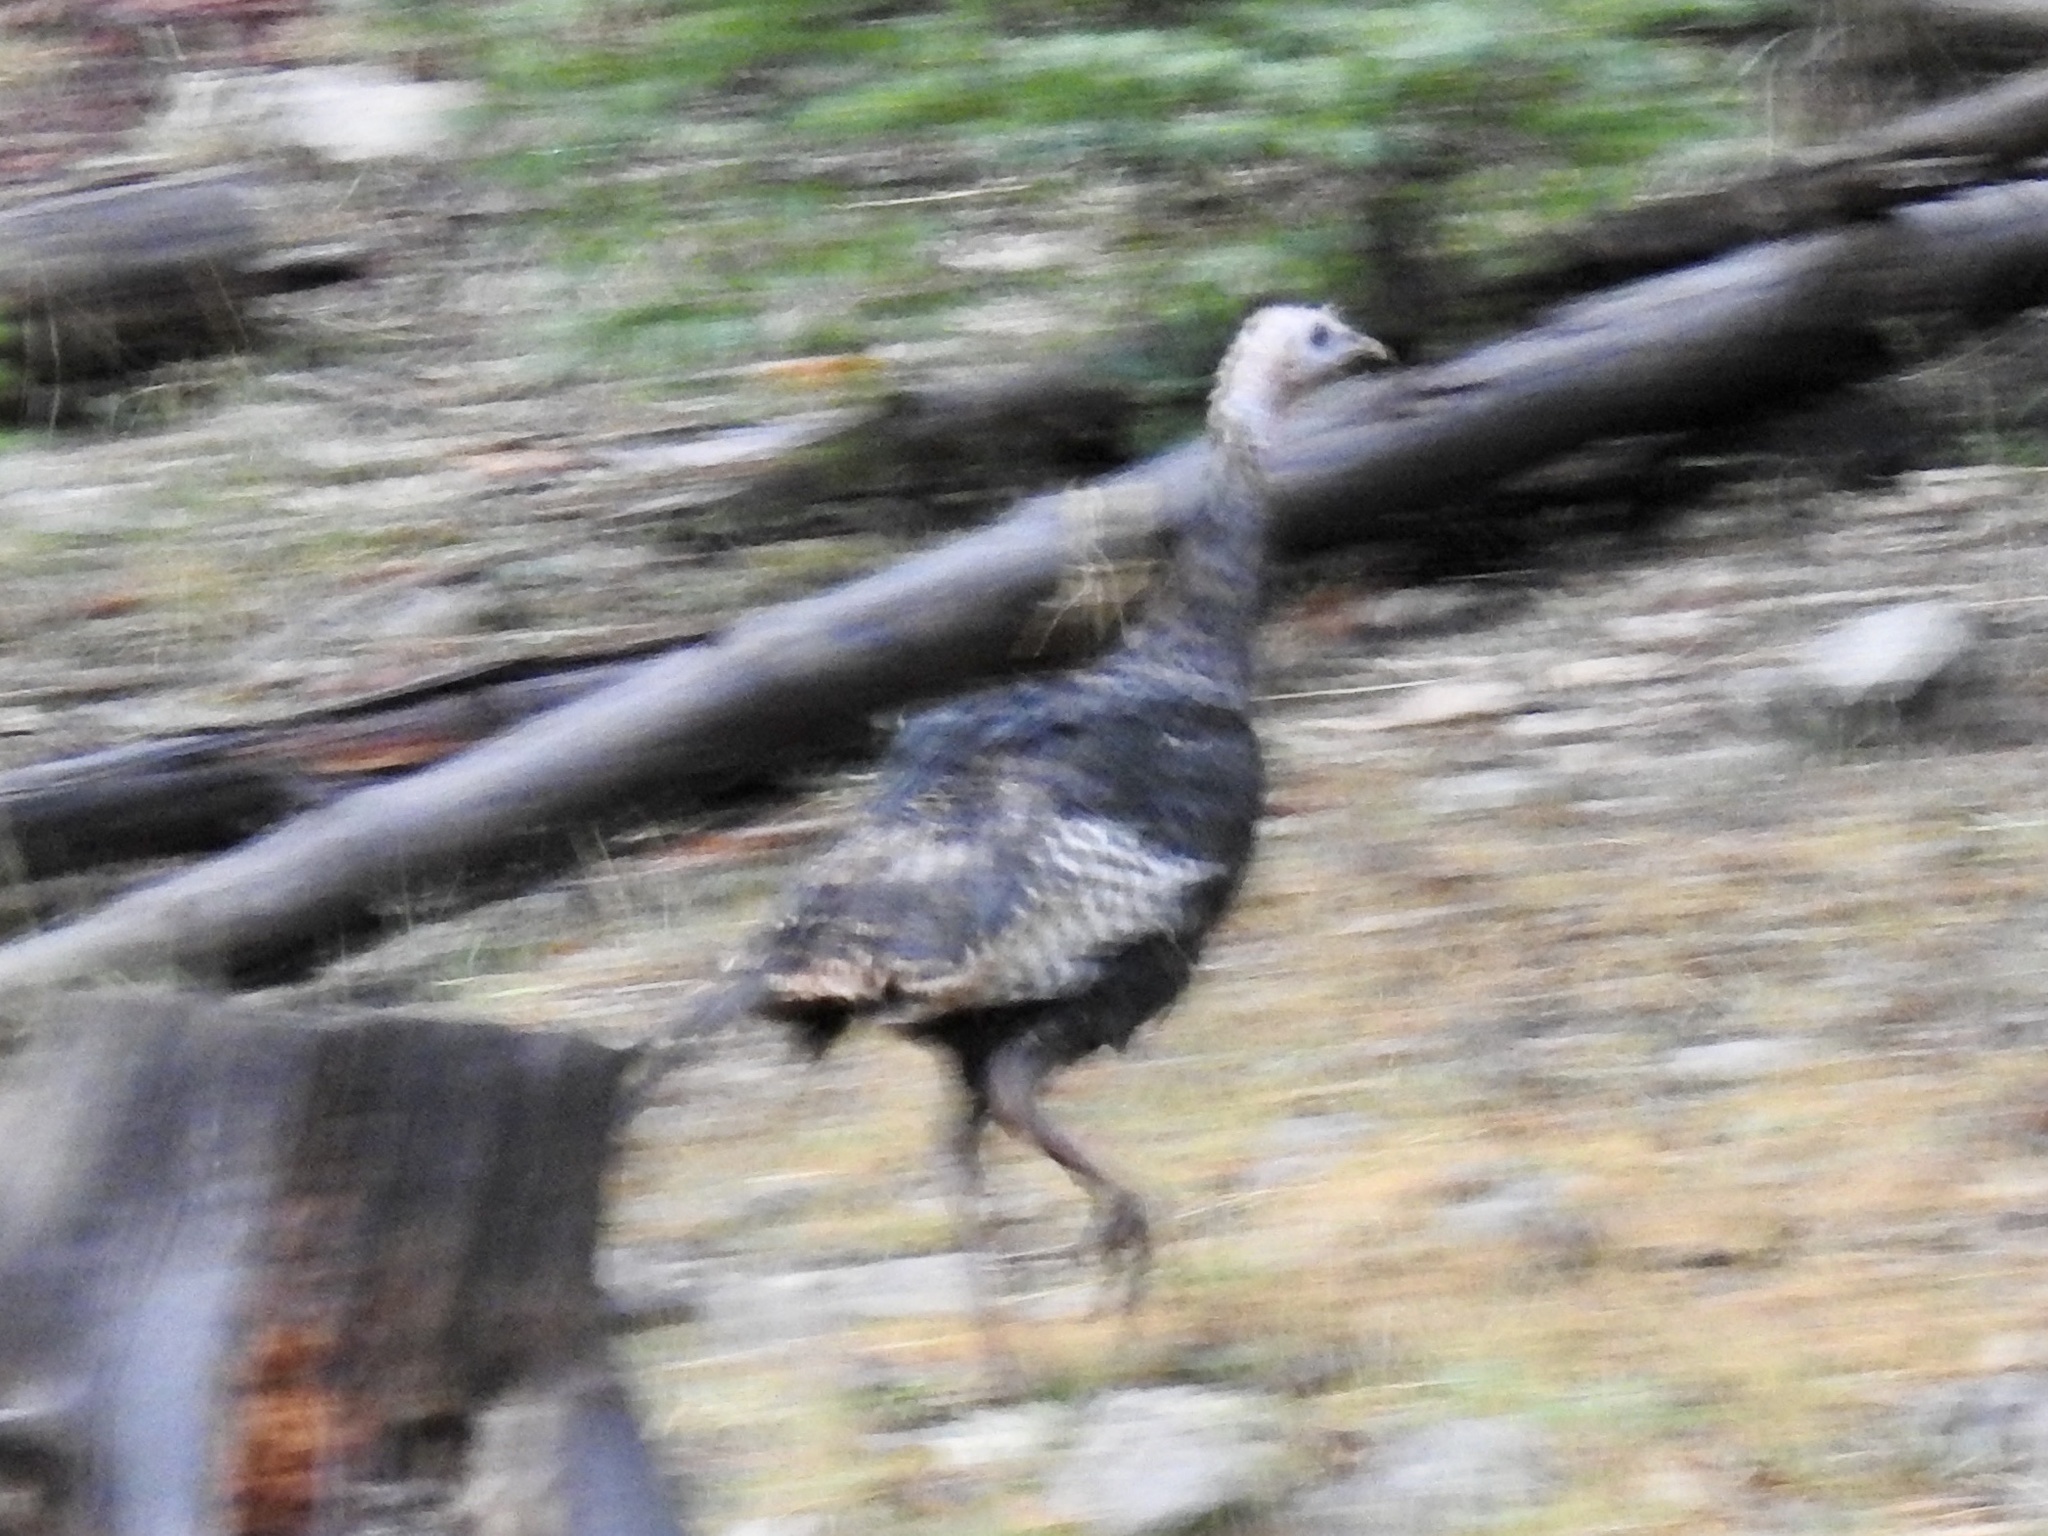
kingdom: Animalia
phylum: Chordata
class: Aves
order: Galliformes
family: Phasianidae
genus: Meleagris
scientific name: Meleagris gallopavo
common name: Wild turkey
